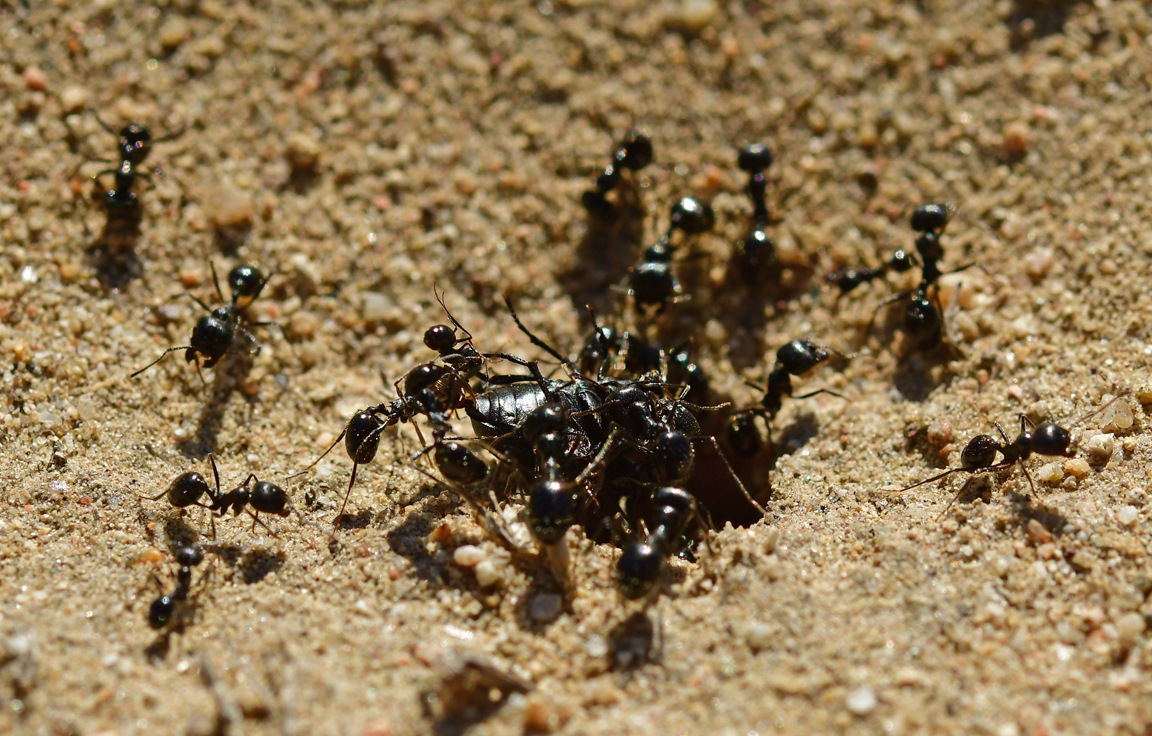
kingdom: Animalia
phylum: Arthropoda
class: Insecta
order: Hymenoptera
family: Formicidae
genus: Messor
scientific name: Messor pergandei
